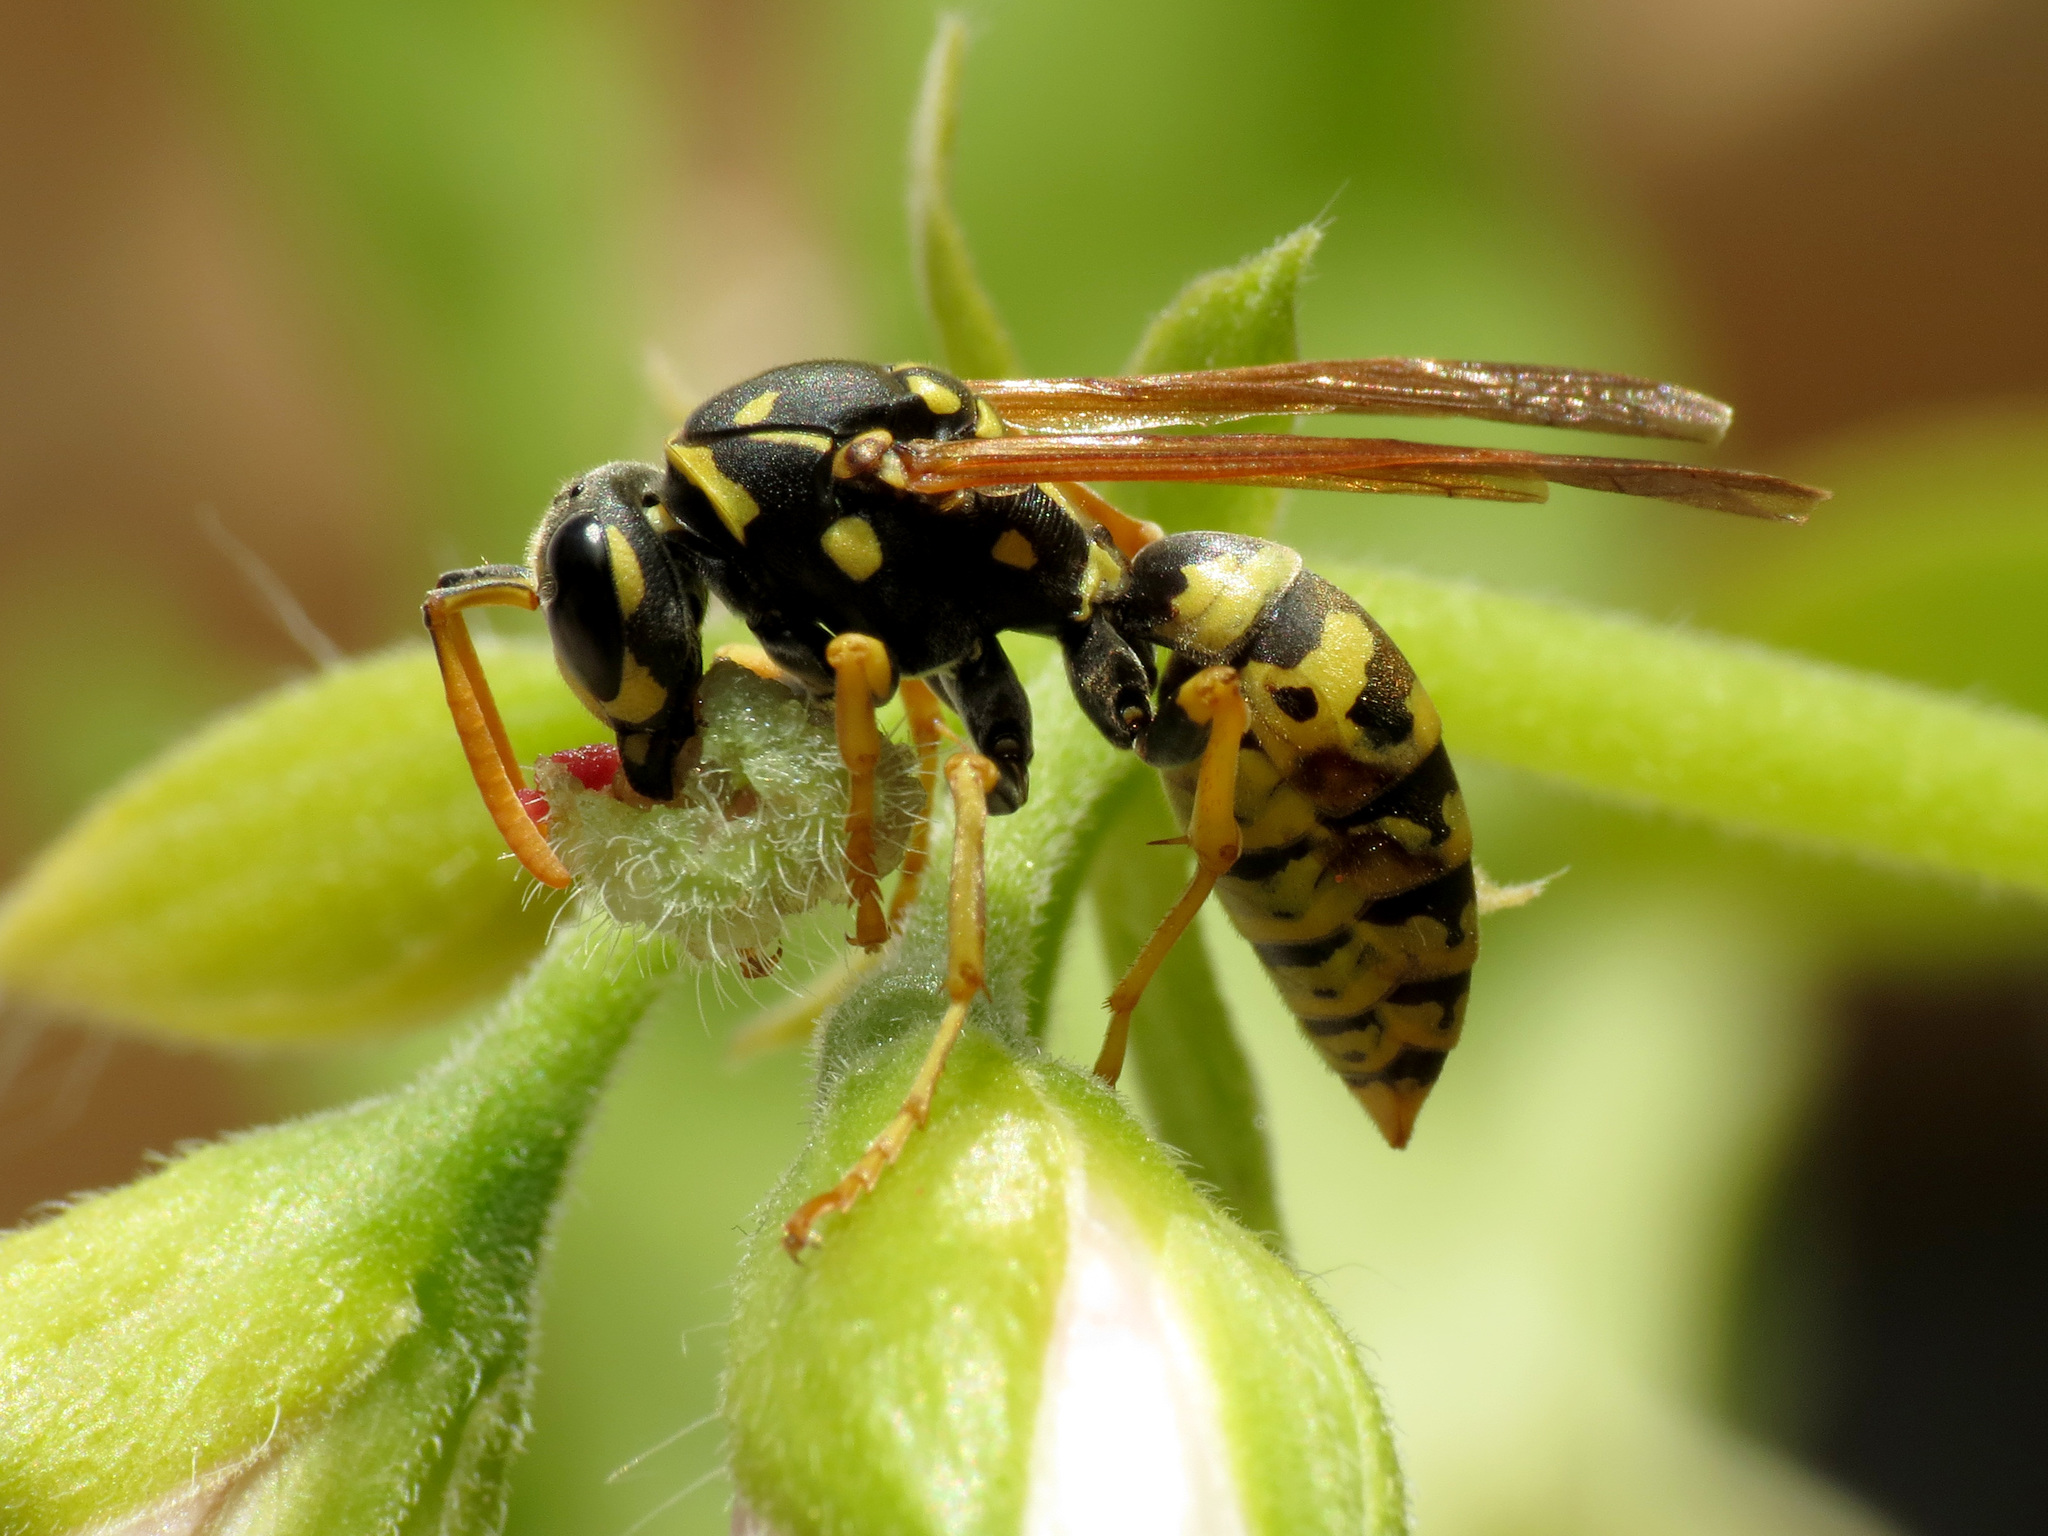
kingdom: Animalia
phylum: Arthropoda
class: Insecta
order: Hymenoptera
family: Eumenidae
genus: Polistes
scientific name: Polistes dominula
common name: Paper wasp
